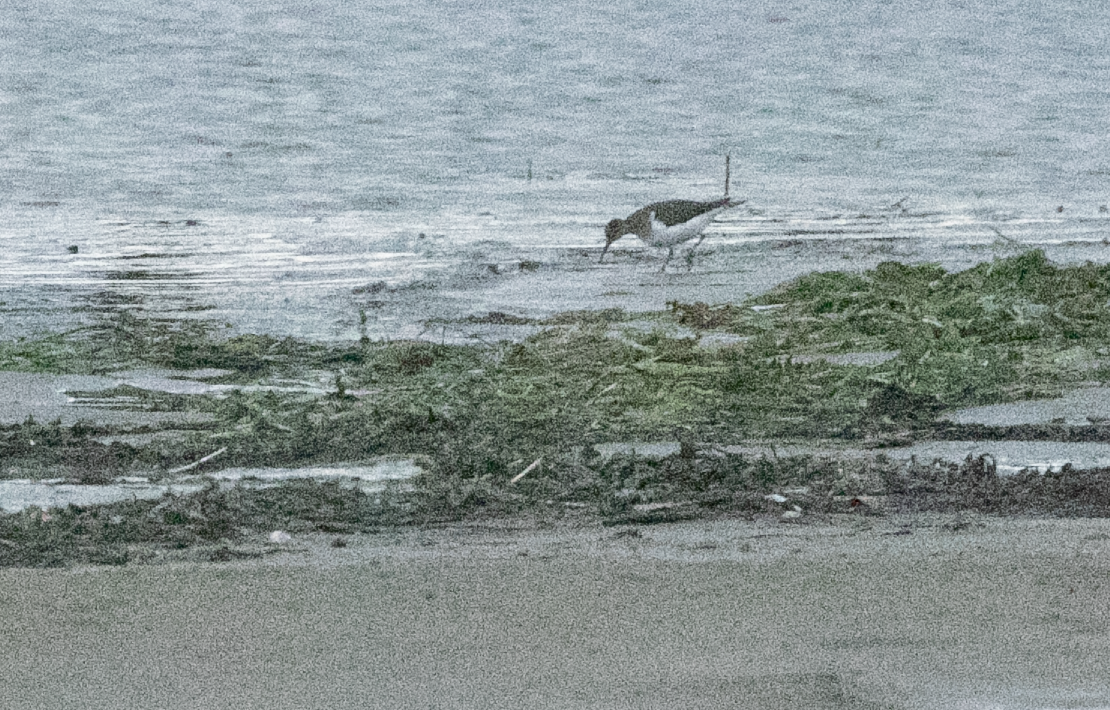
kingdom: Animalia
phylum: Chordata
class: Aves
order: Charadriiformes
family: Scolopacidae
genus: Actitis
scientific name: Actitis hypoleucos
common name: Common sandpiper
